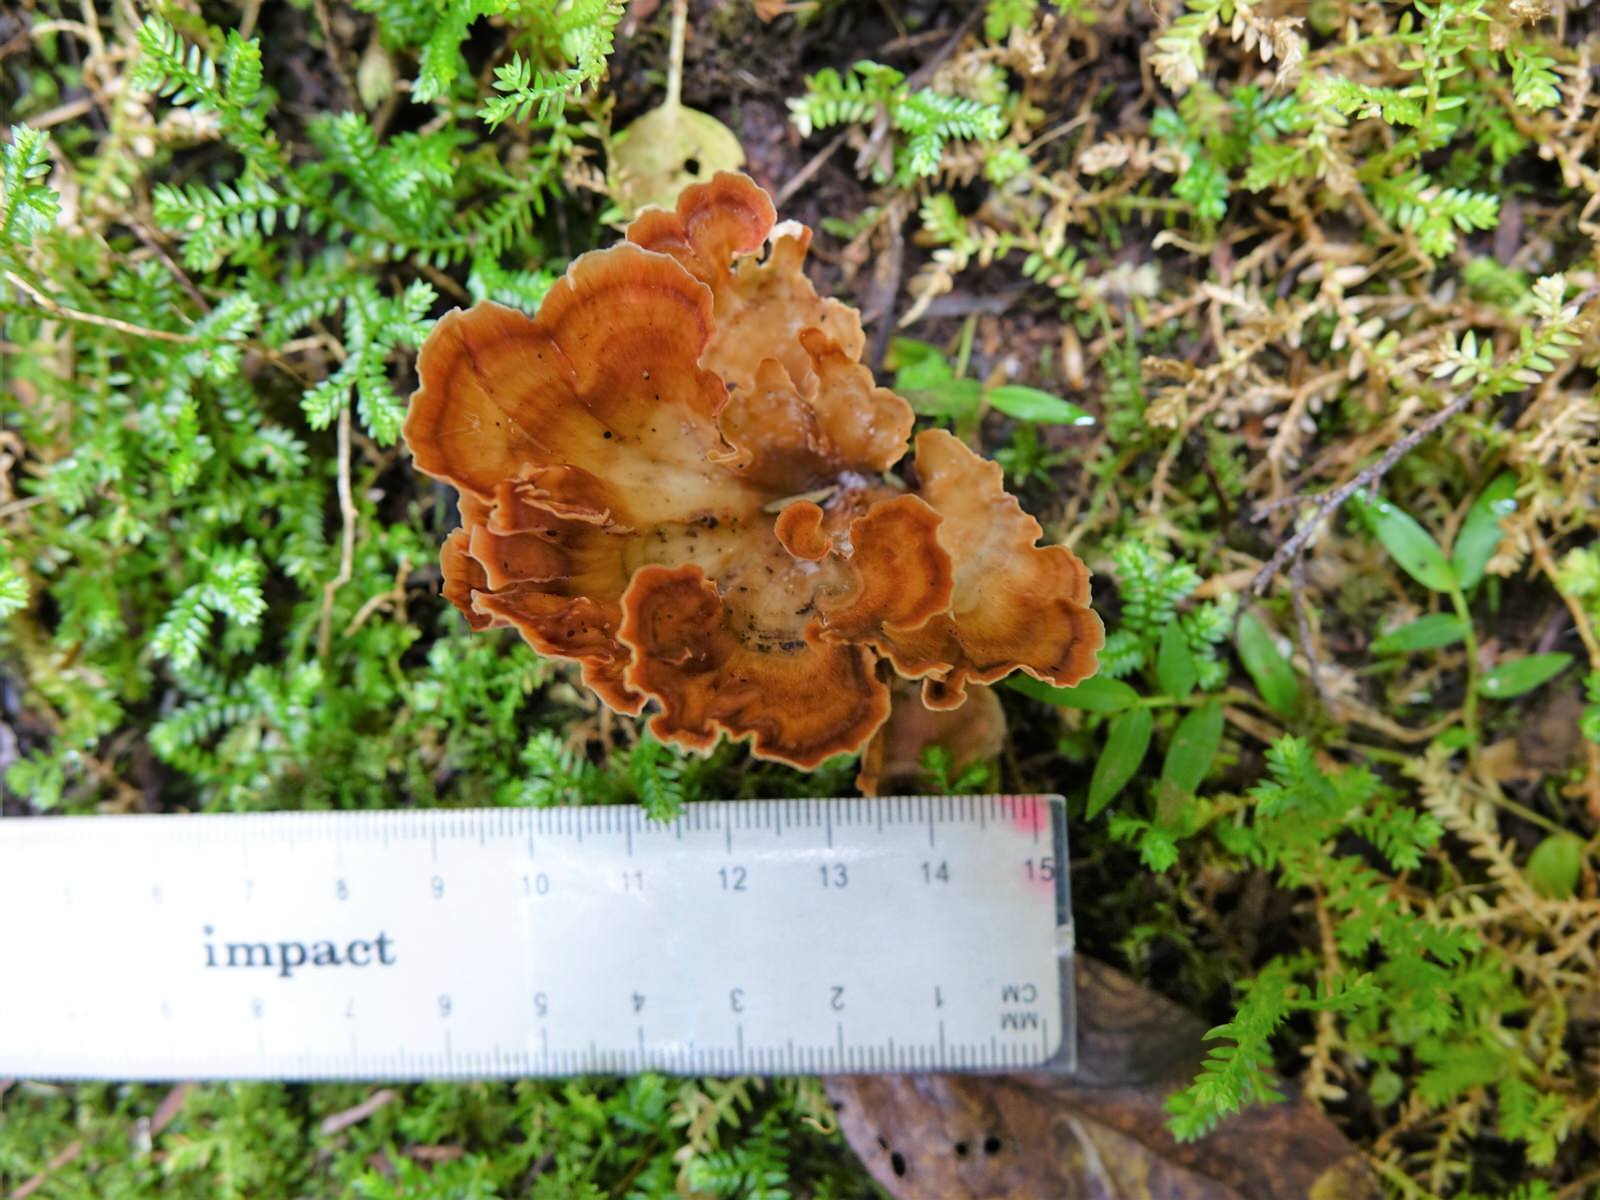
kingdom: Fungi
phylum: Basidiomycota
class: Agaricomycetes
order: Polyporales
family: Podoscyphaceae
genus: Podoscypha
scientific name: Podoscypha petalodes
